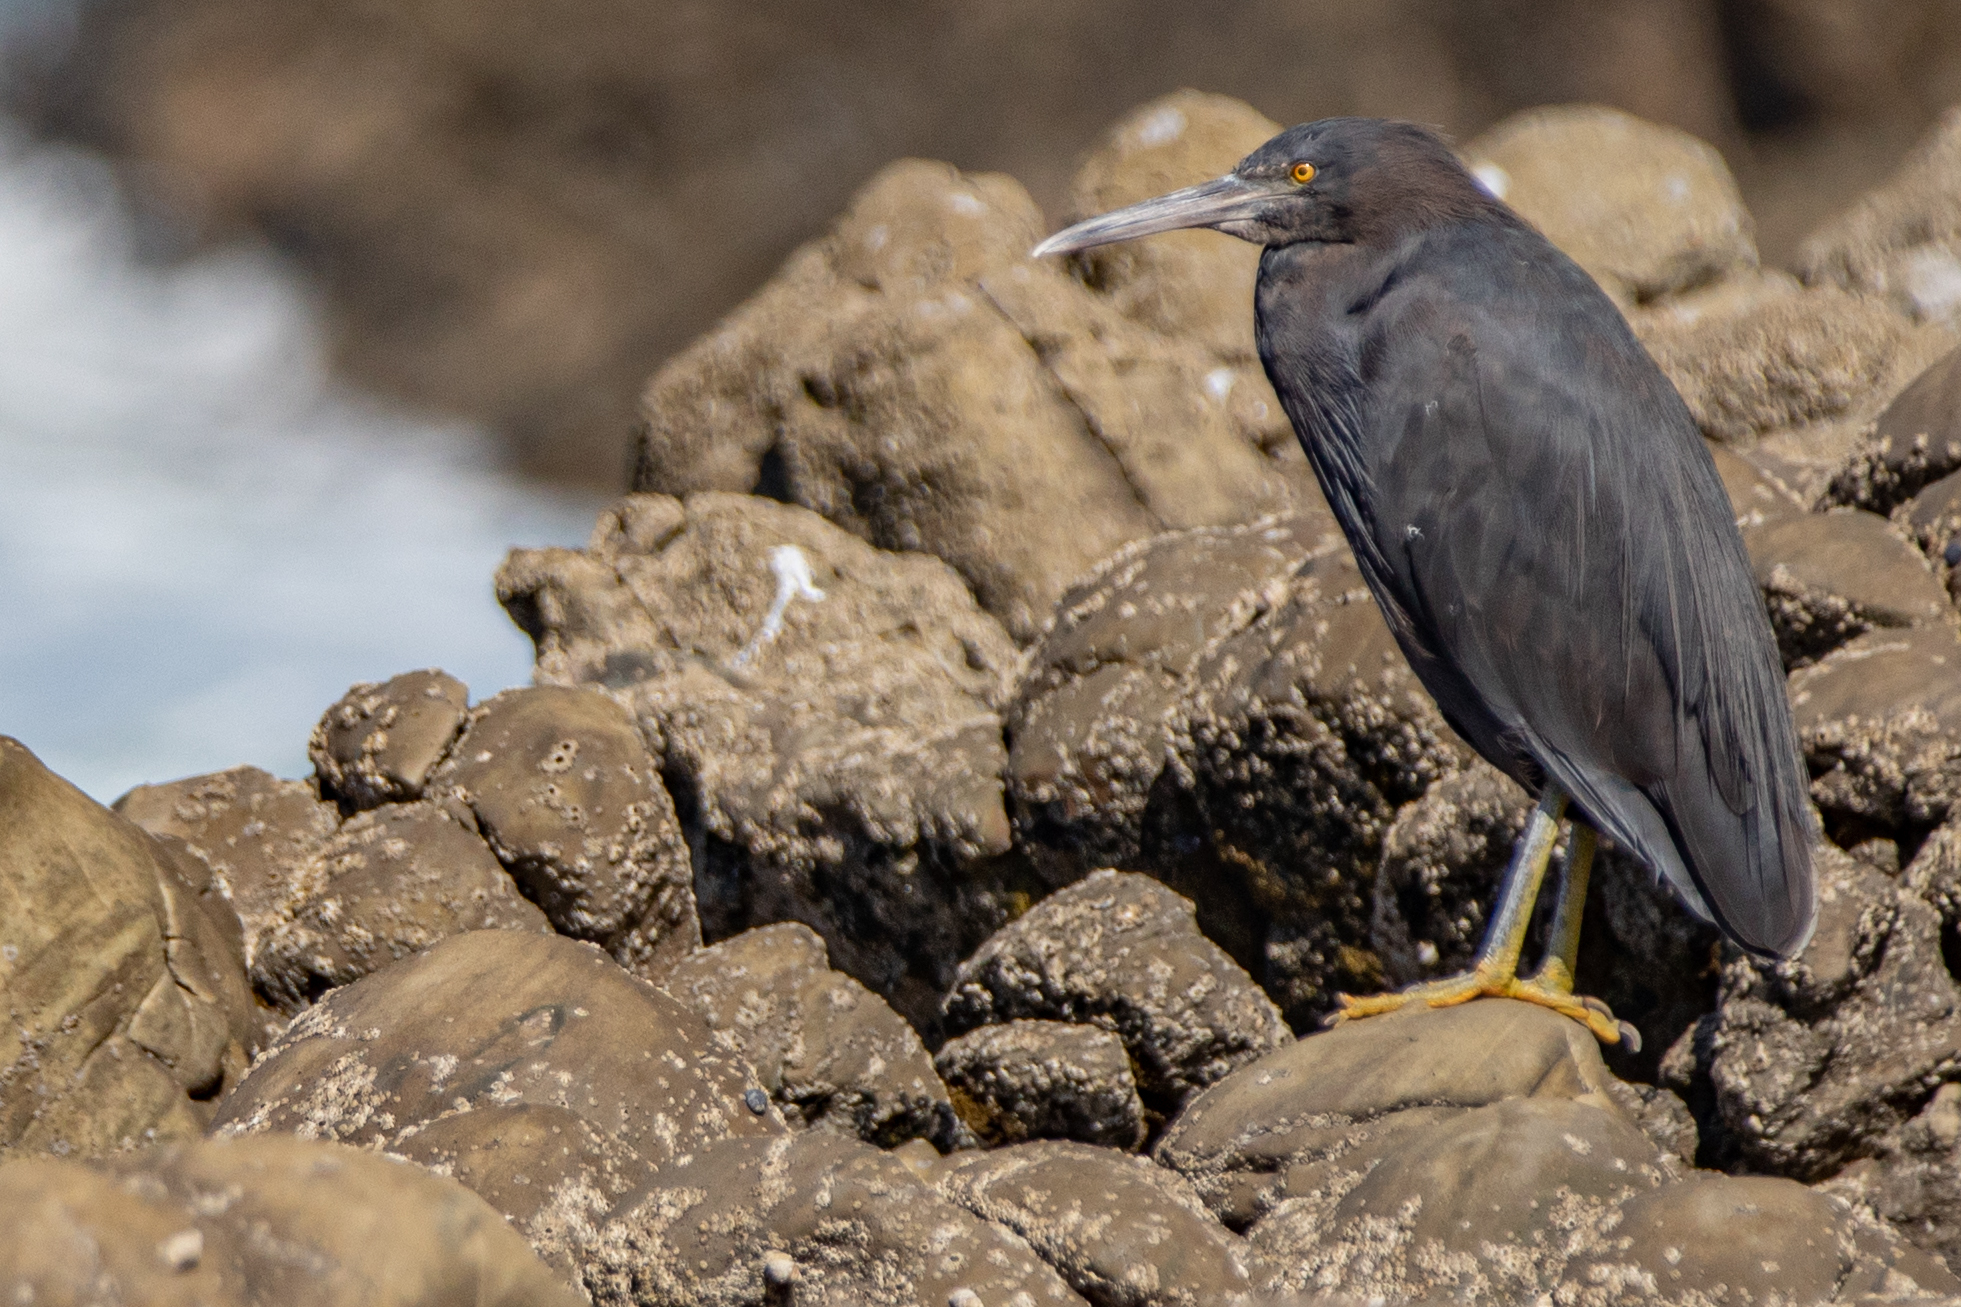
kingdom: Animalia
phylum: Chordata
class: Aves
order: Pelecaniformes
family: Ardeidae
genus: Egretta
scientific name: Egretta sacra
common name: Pacific reef heron
